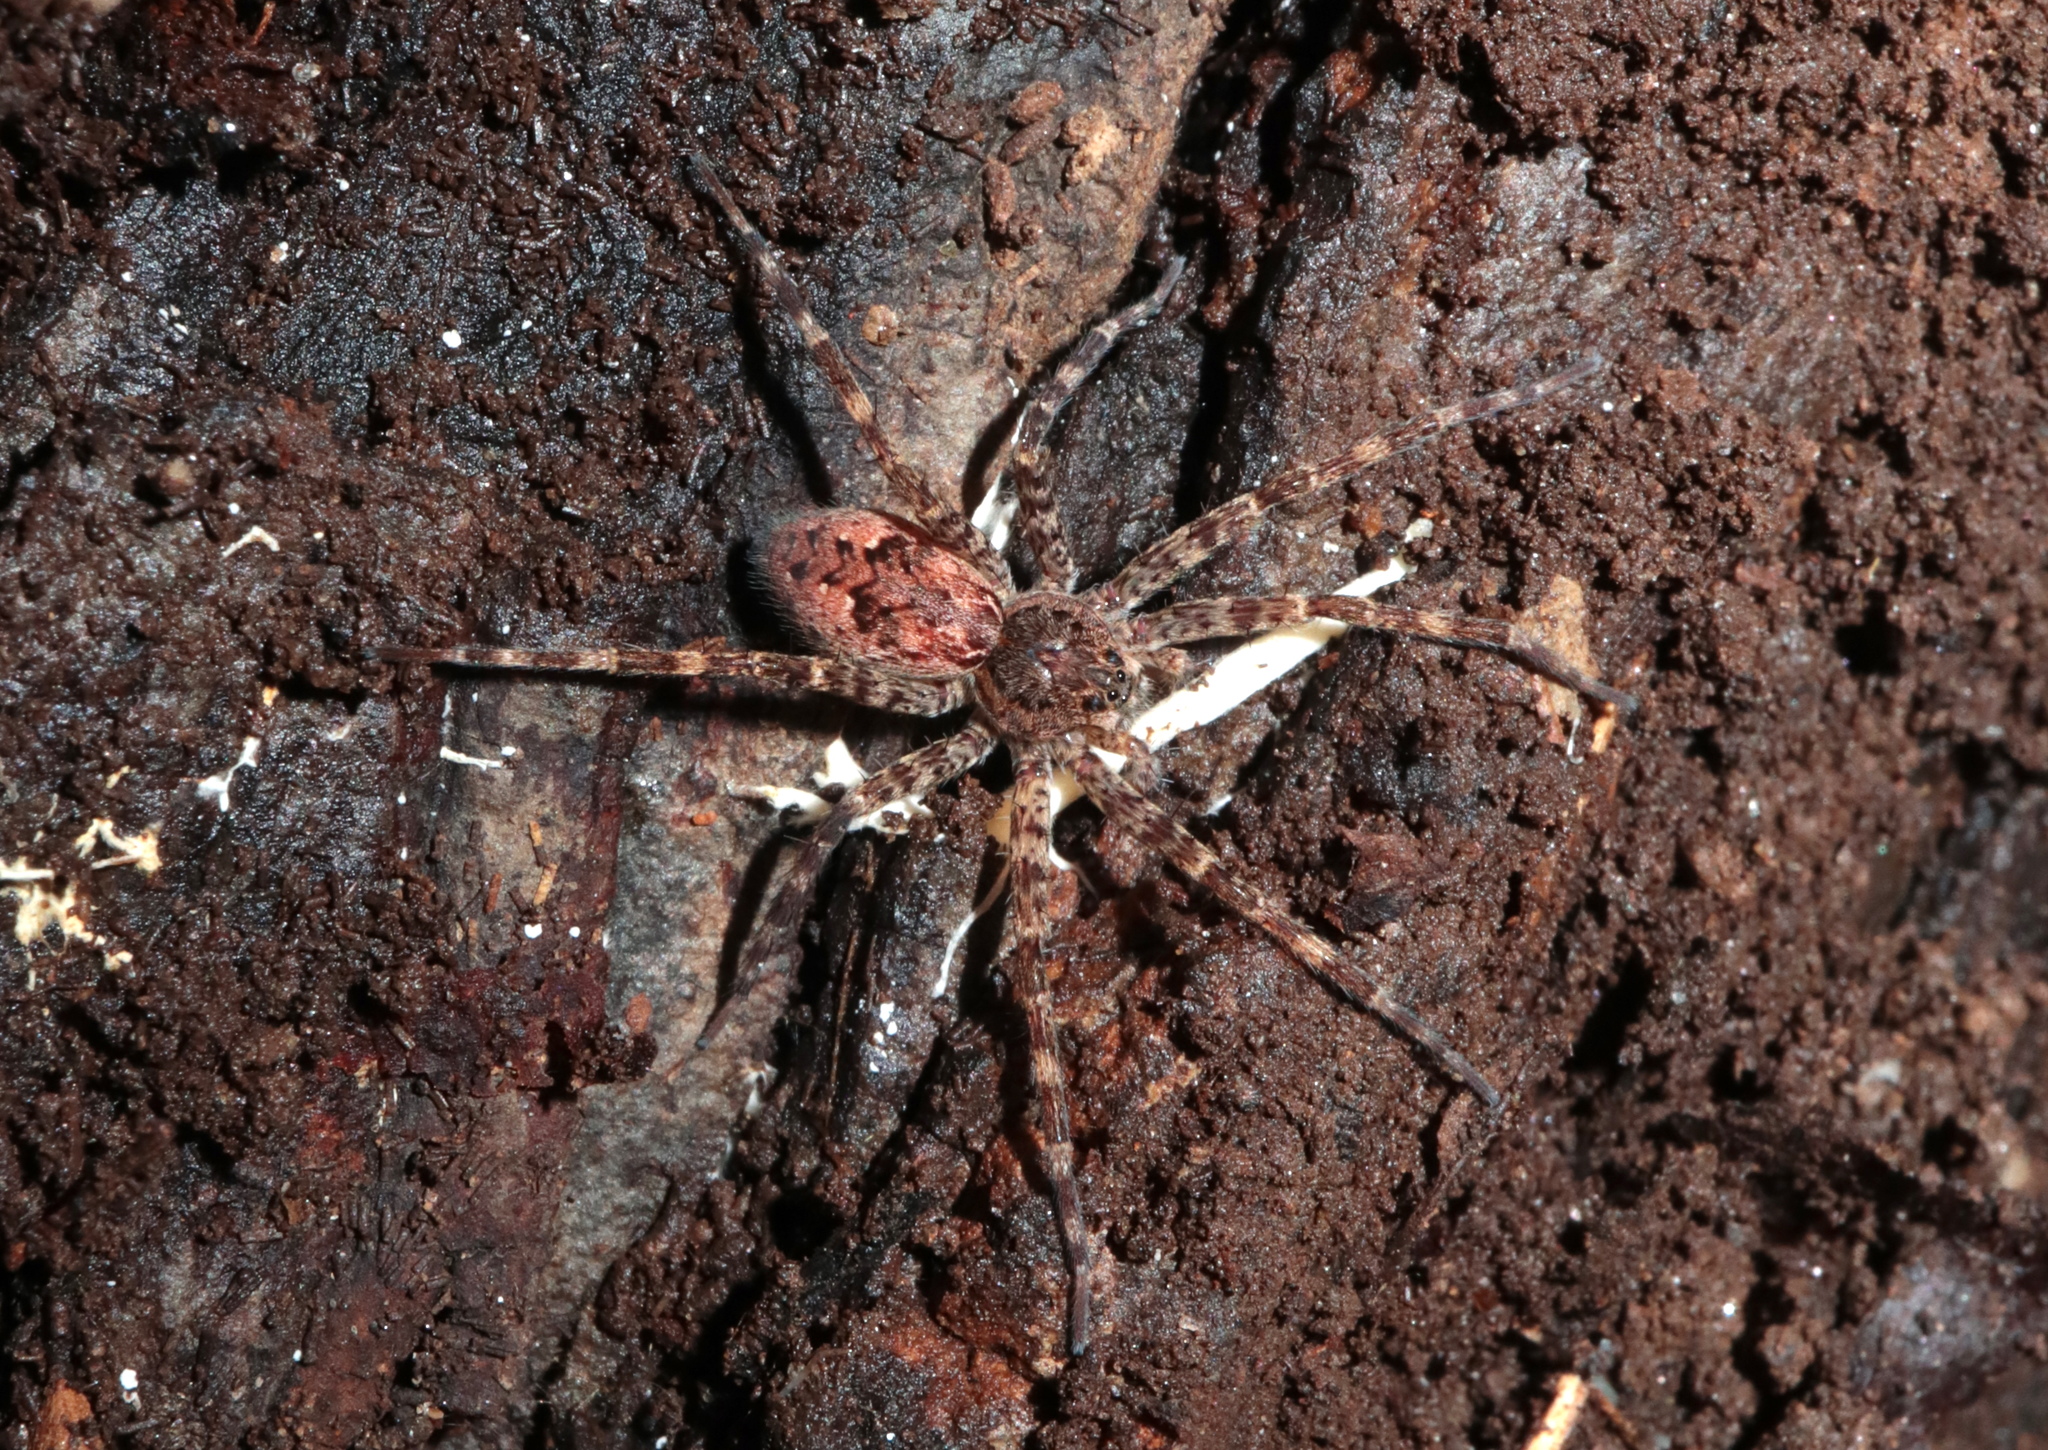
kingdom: Animalia
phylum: Arthropoda
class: Arachnida
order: Araneae
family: Pisauridae
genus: Dolomedes
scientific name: Dolomedes tenebrosus
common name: Dark fishing spider
